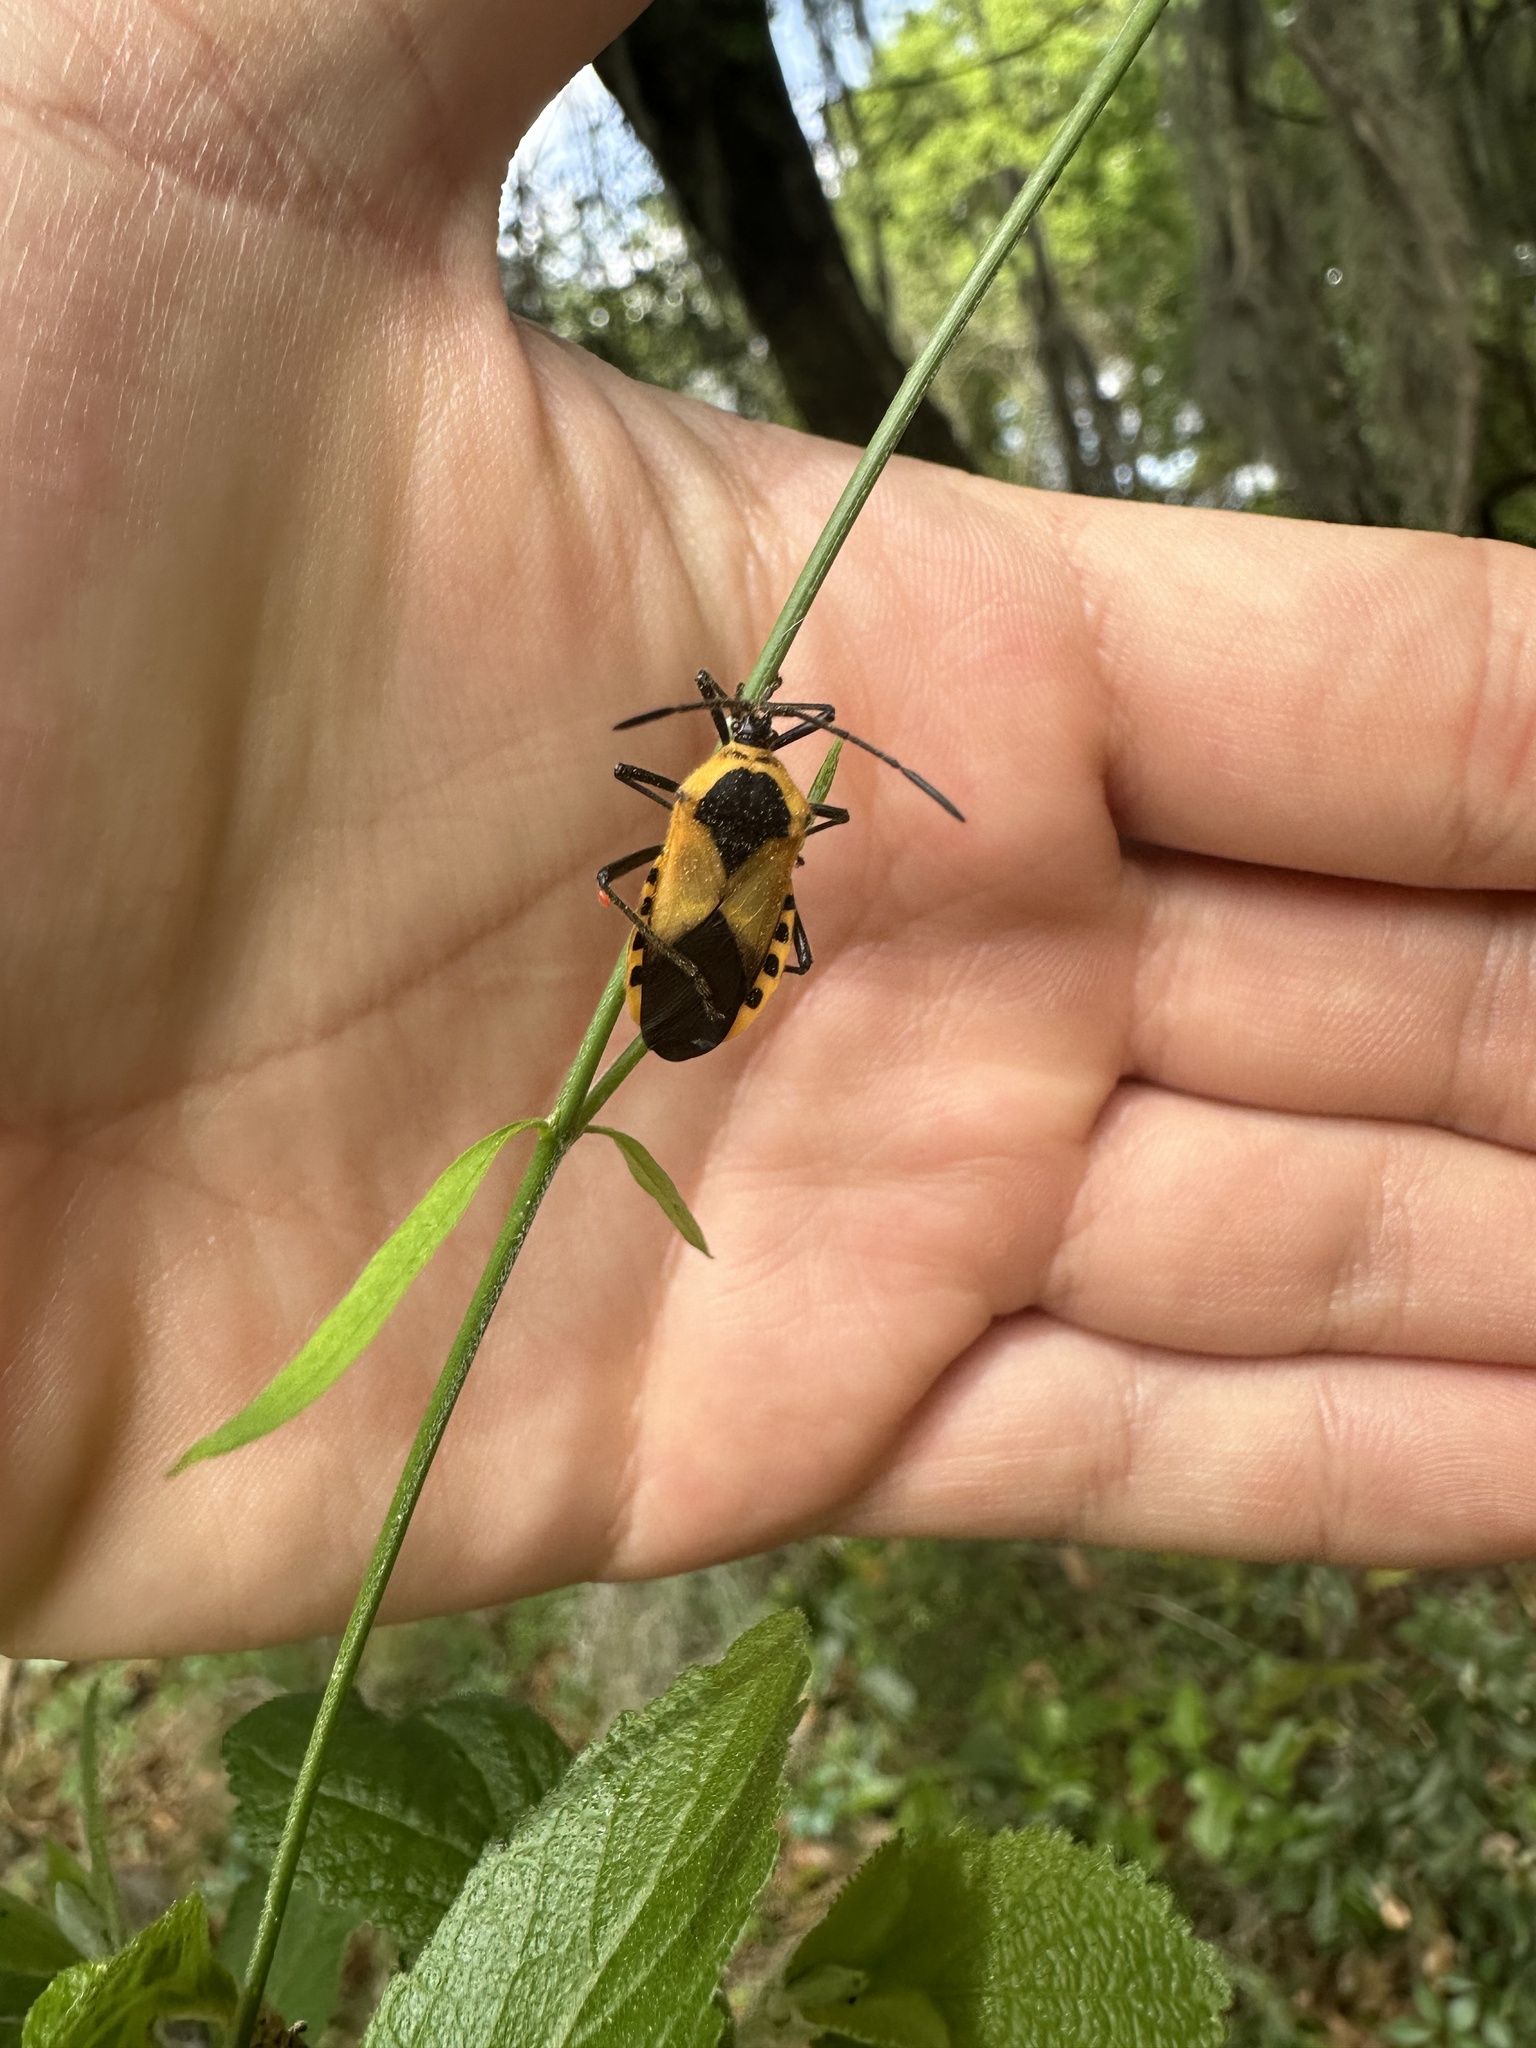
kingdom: Animalia
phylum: Arthropoda
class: Insecta
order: Hemiptera
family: Coreidae
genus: Sephina
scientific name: Sephina gundlachii
